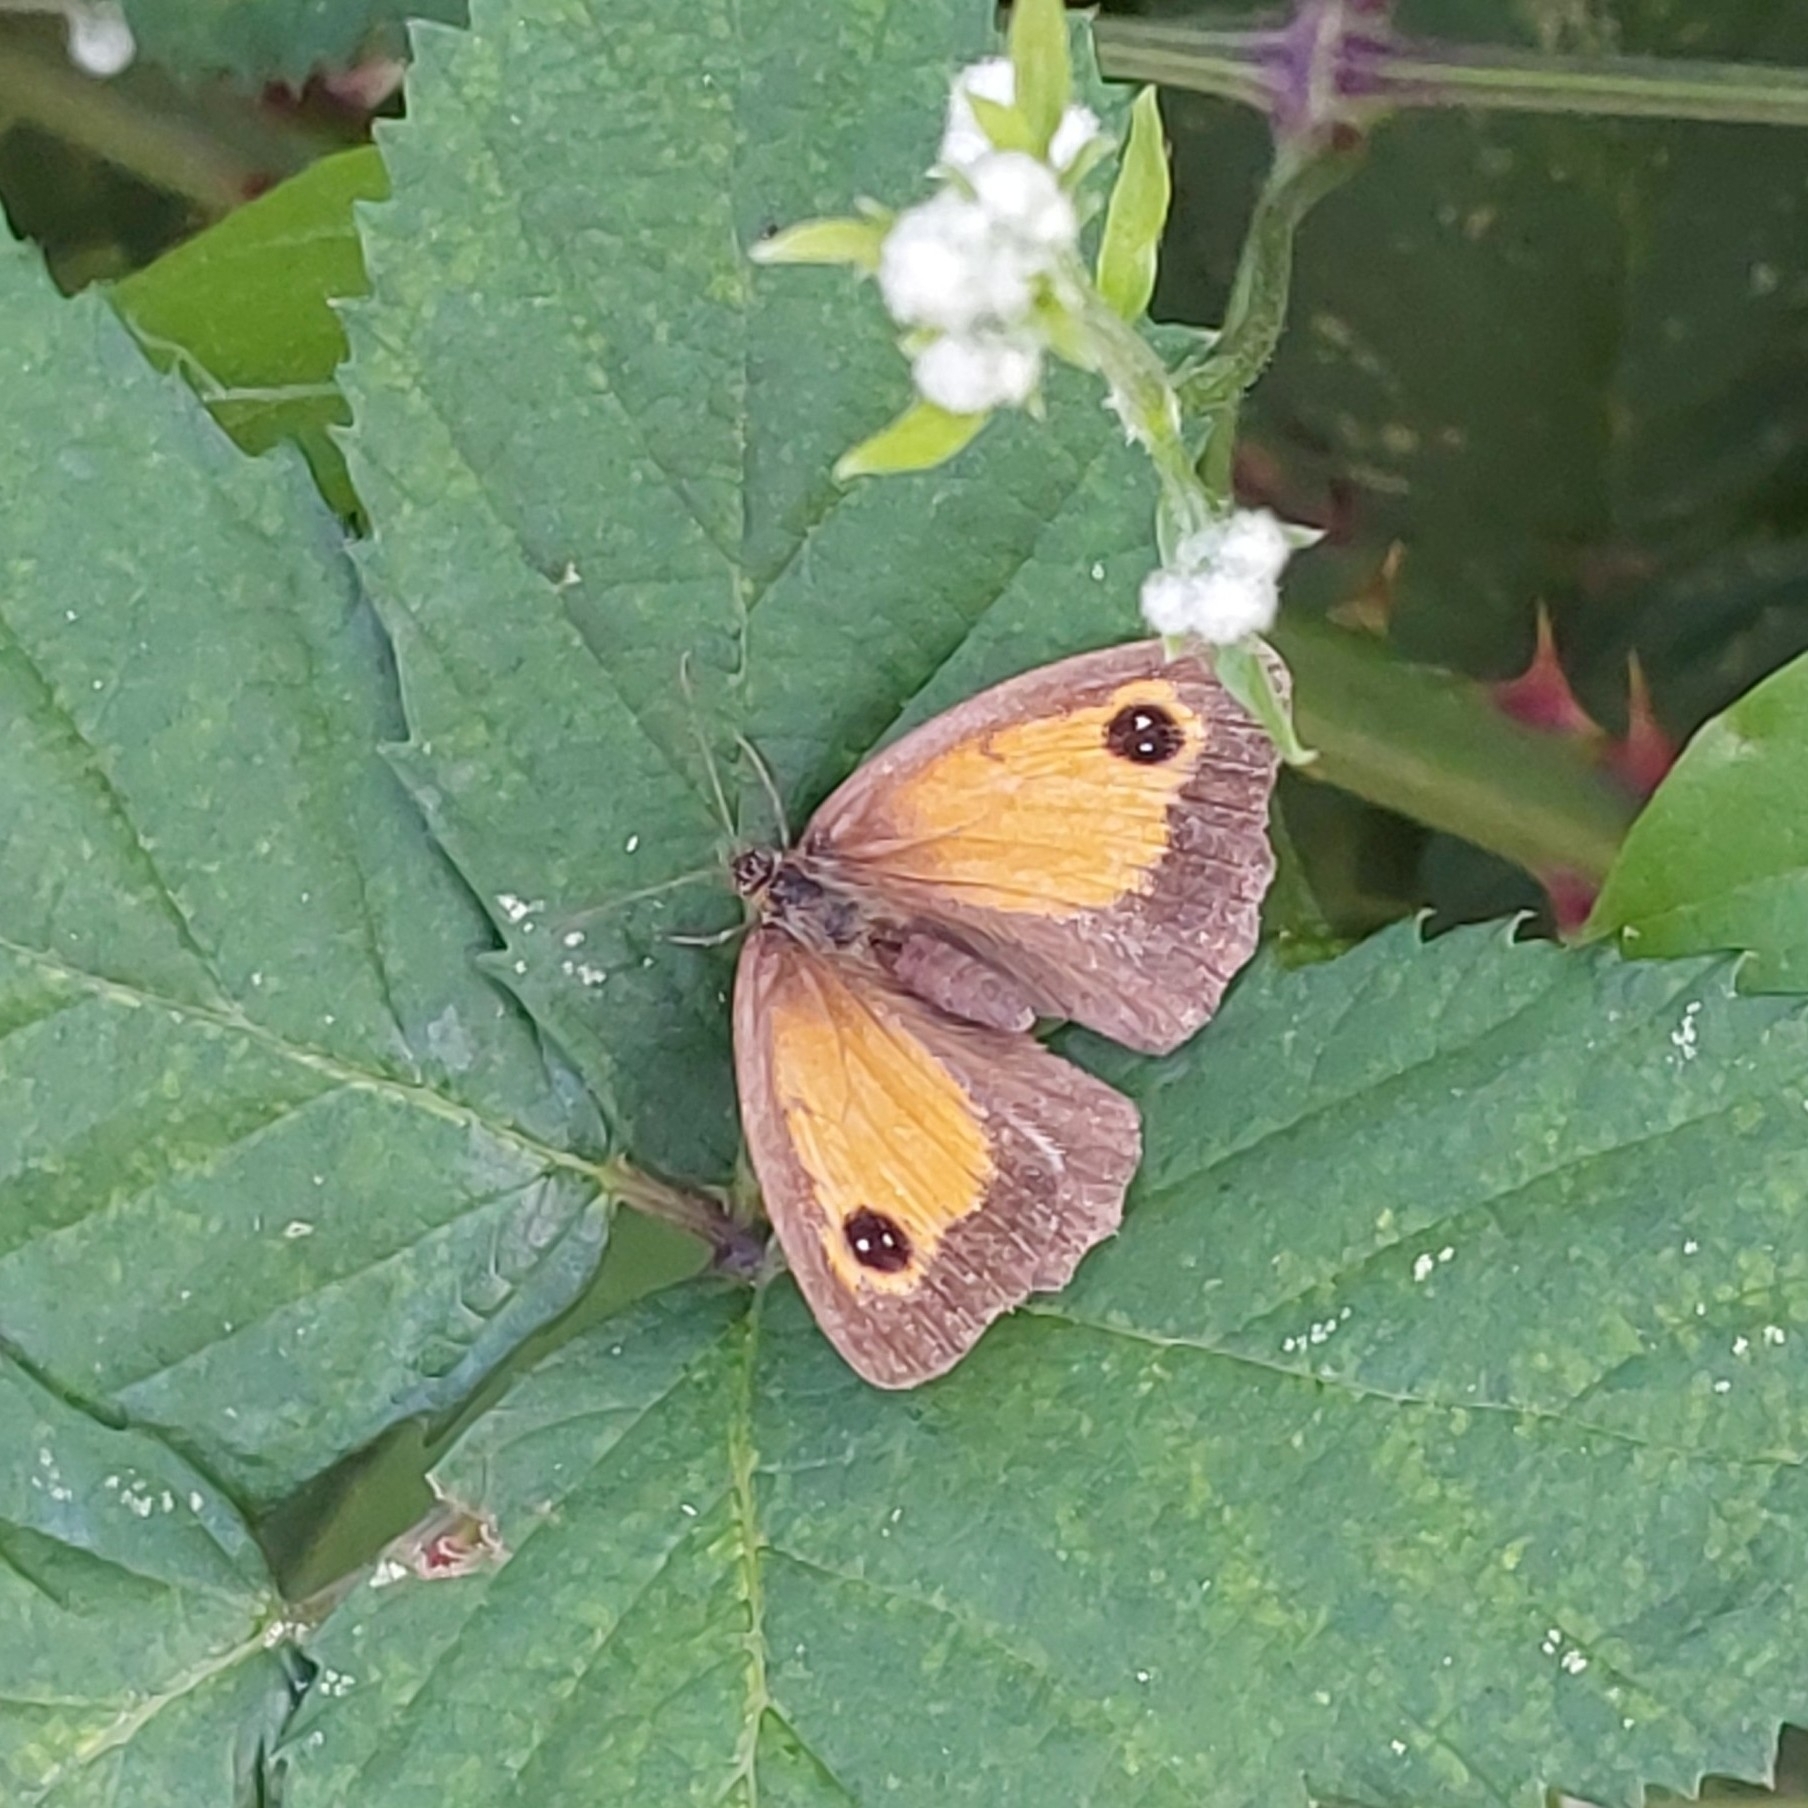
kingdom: Animalia
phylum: Arthropoda
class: Insecta
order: Lepidoptera
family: Nymphalidae
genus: Pyronia
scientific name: Pyronia tithonus
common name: Gatekeeper
